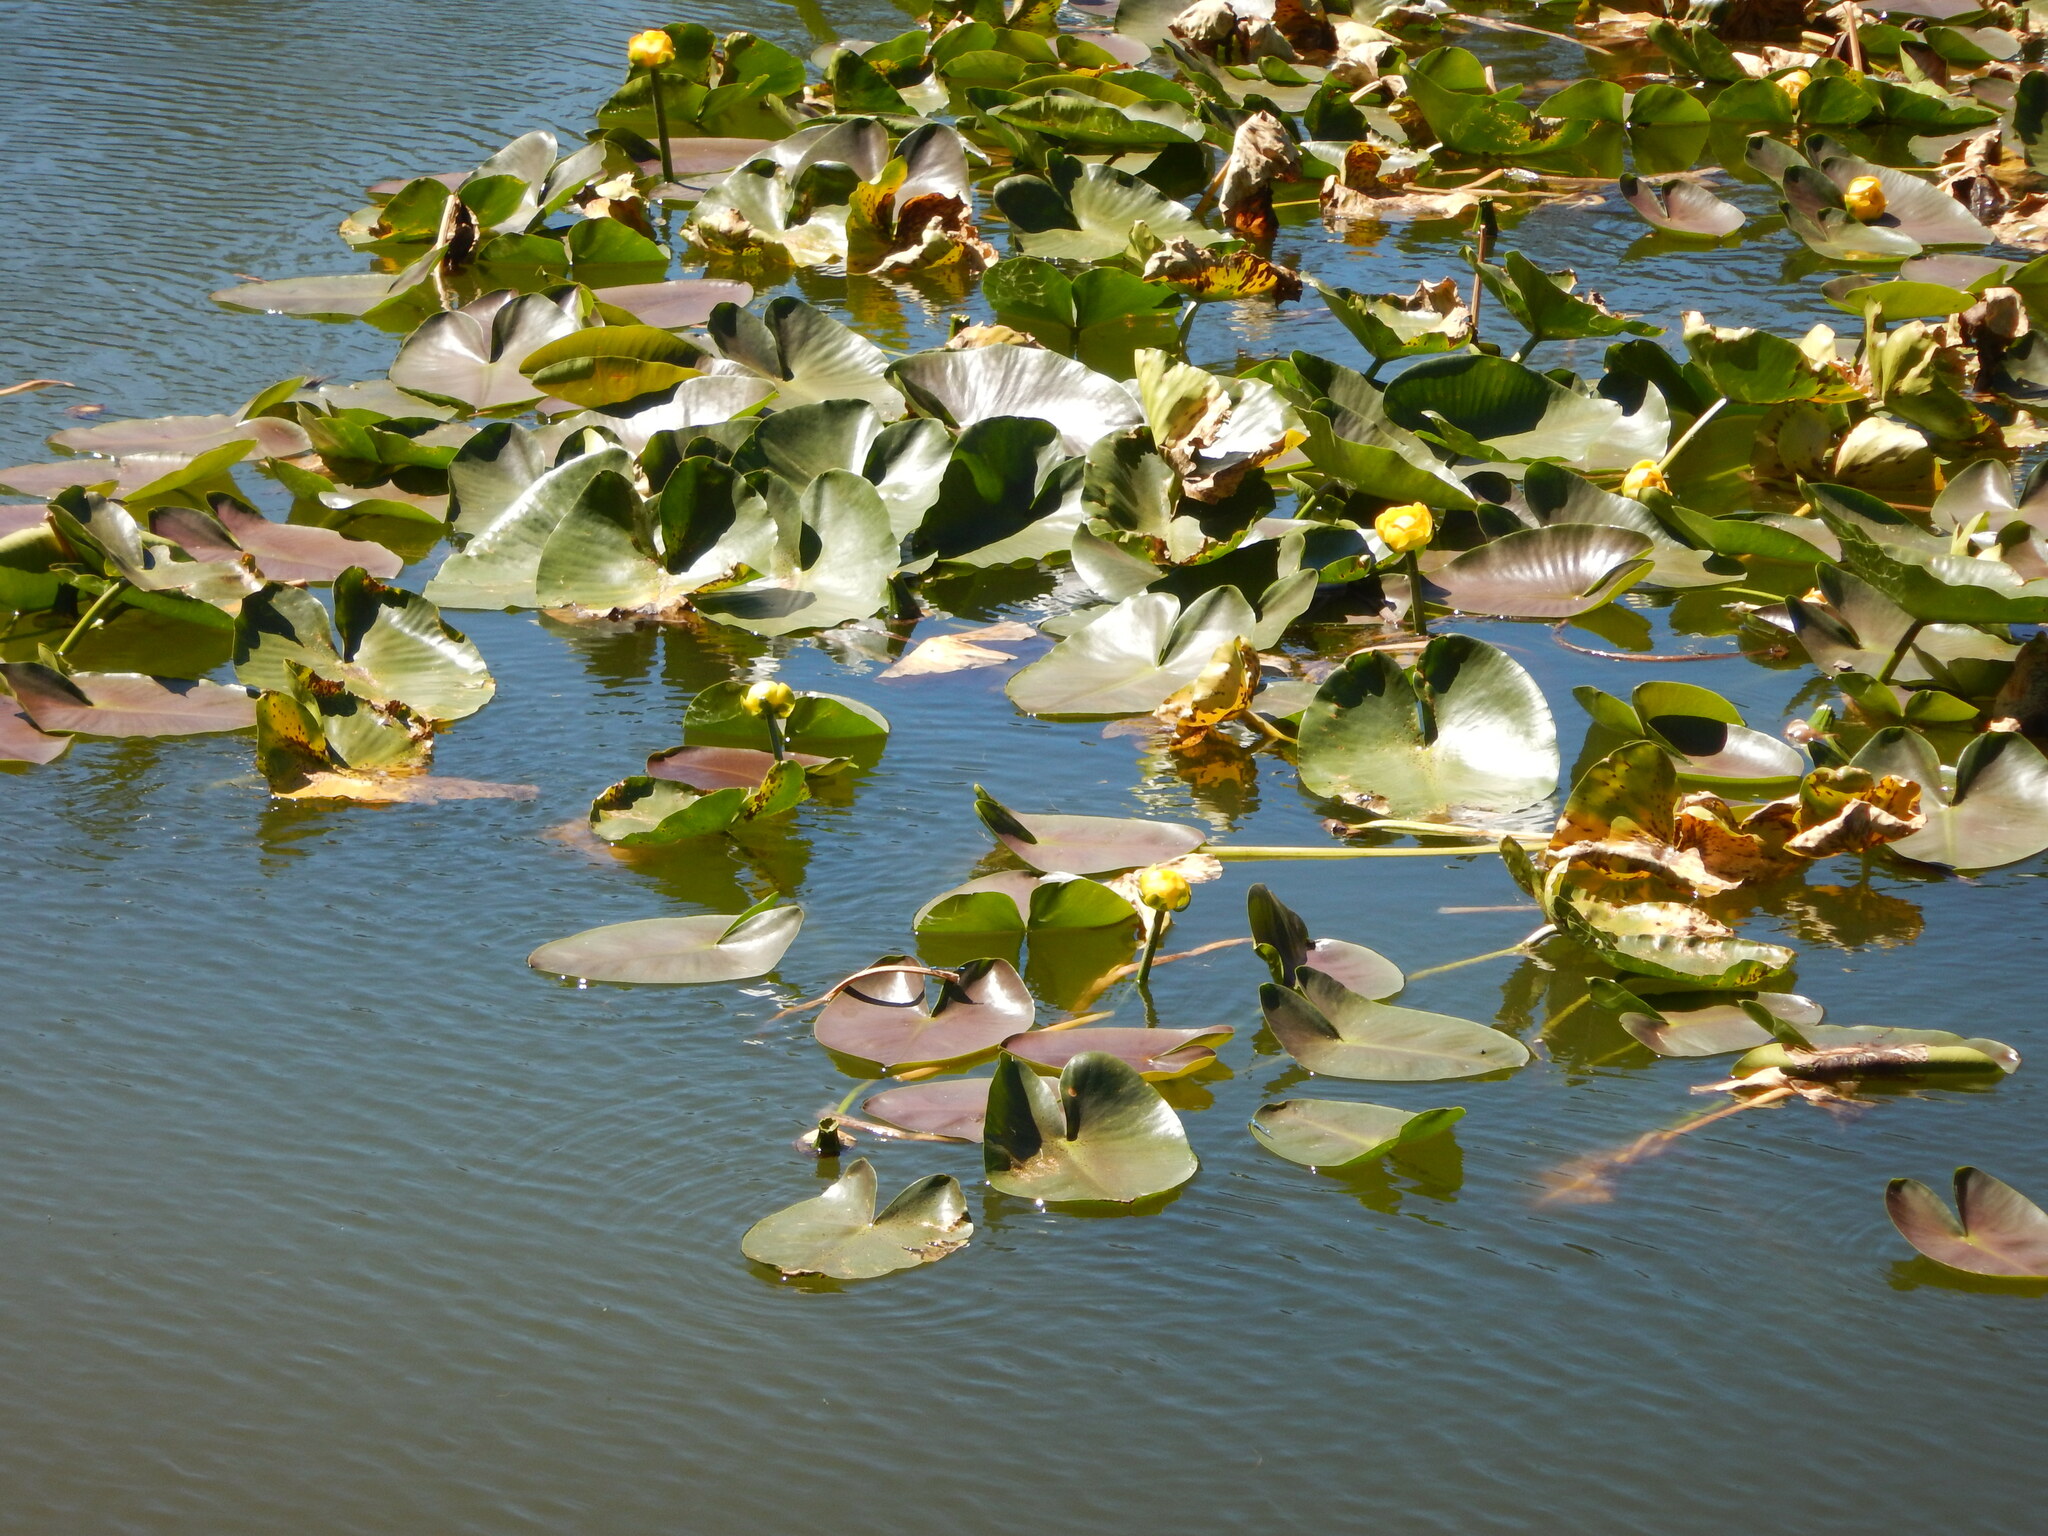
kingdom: Plantae
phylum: Tracheophyta
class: Magnoliopsida
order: Nymphaeales
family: Nymphaeaceae
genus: Nuphar
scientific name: Nuphar polysepala
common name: Rocky mountain cow-lily
